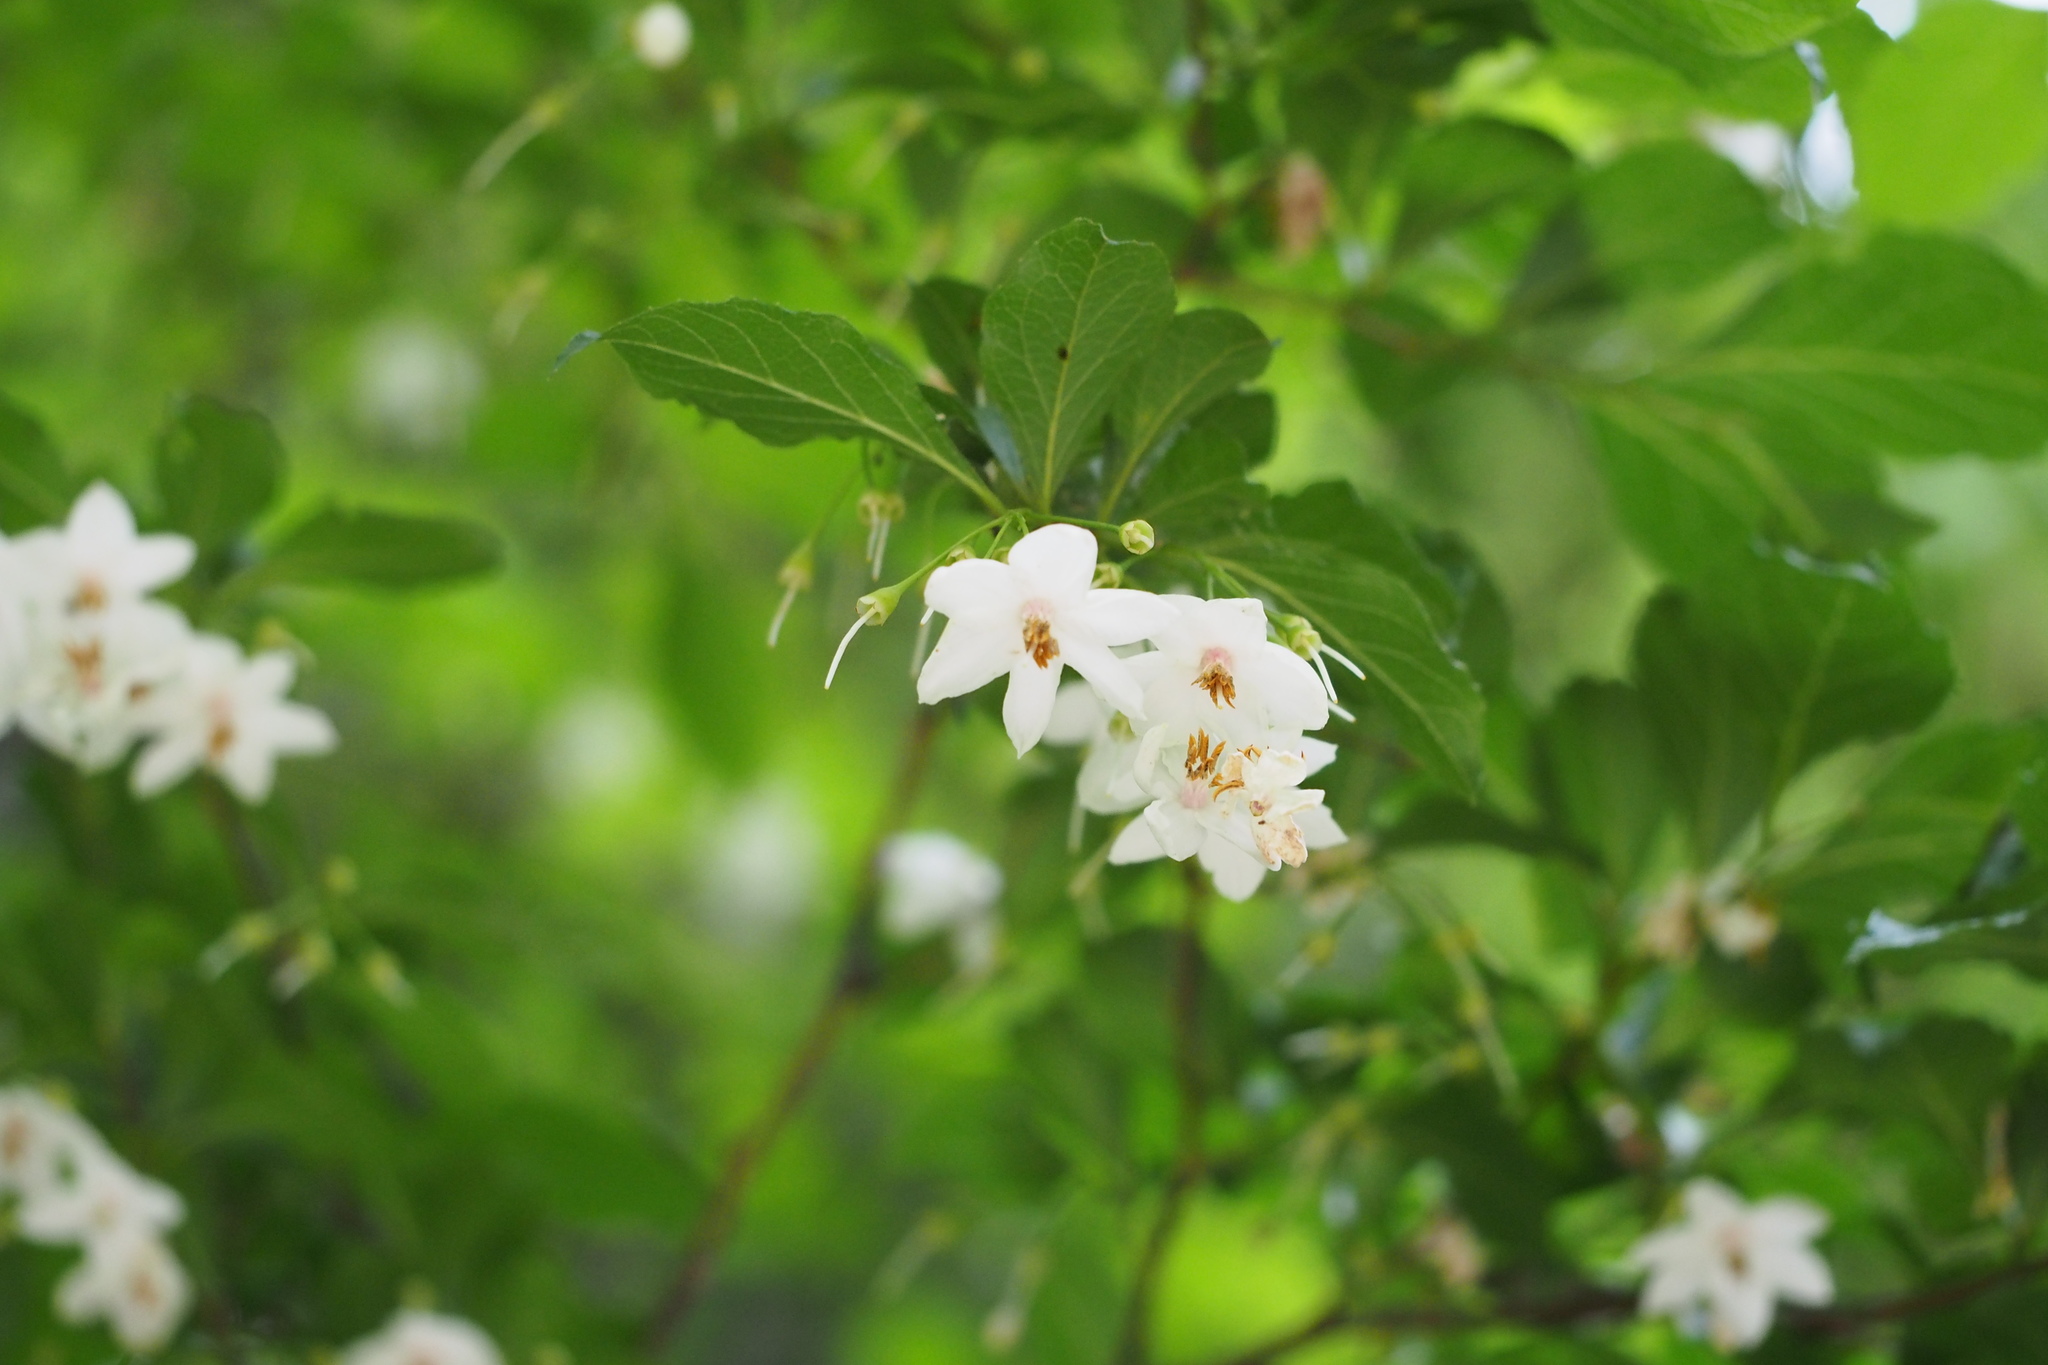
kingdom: Plantae
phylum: Tracheophyta
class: Magnoliopsida
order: Ericales
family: Styracaceae
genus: Styrax
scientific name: Styrax japonicus
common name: Japanese snowbell
